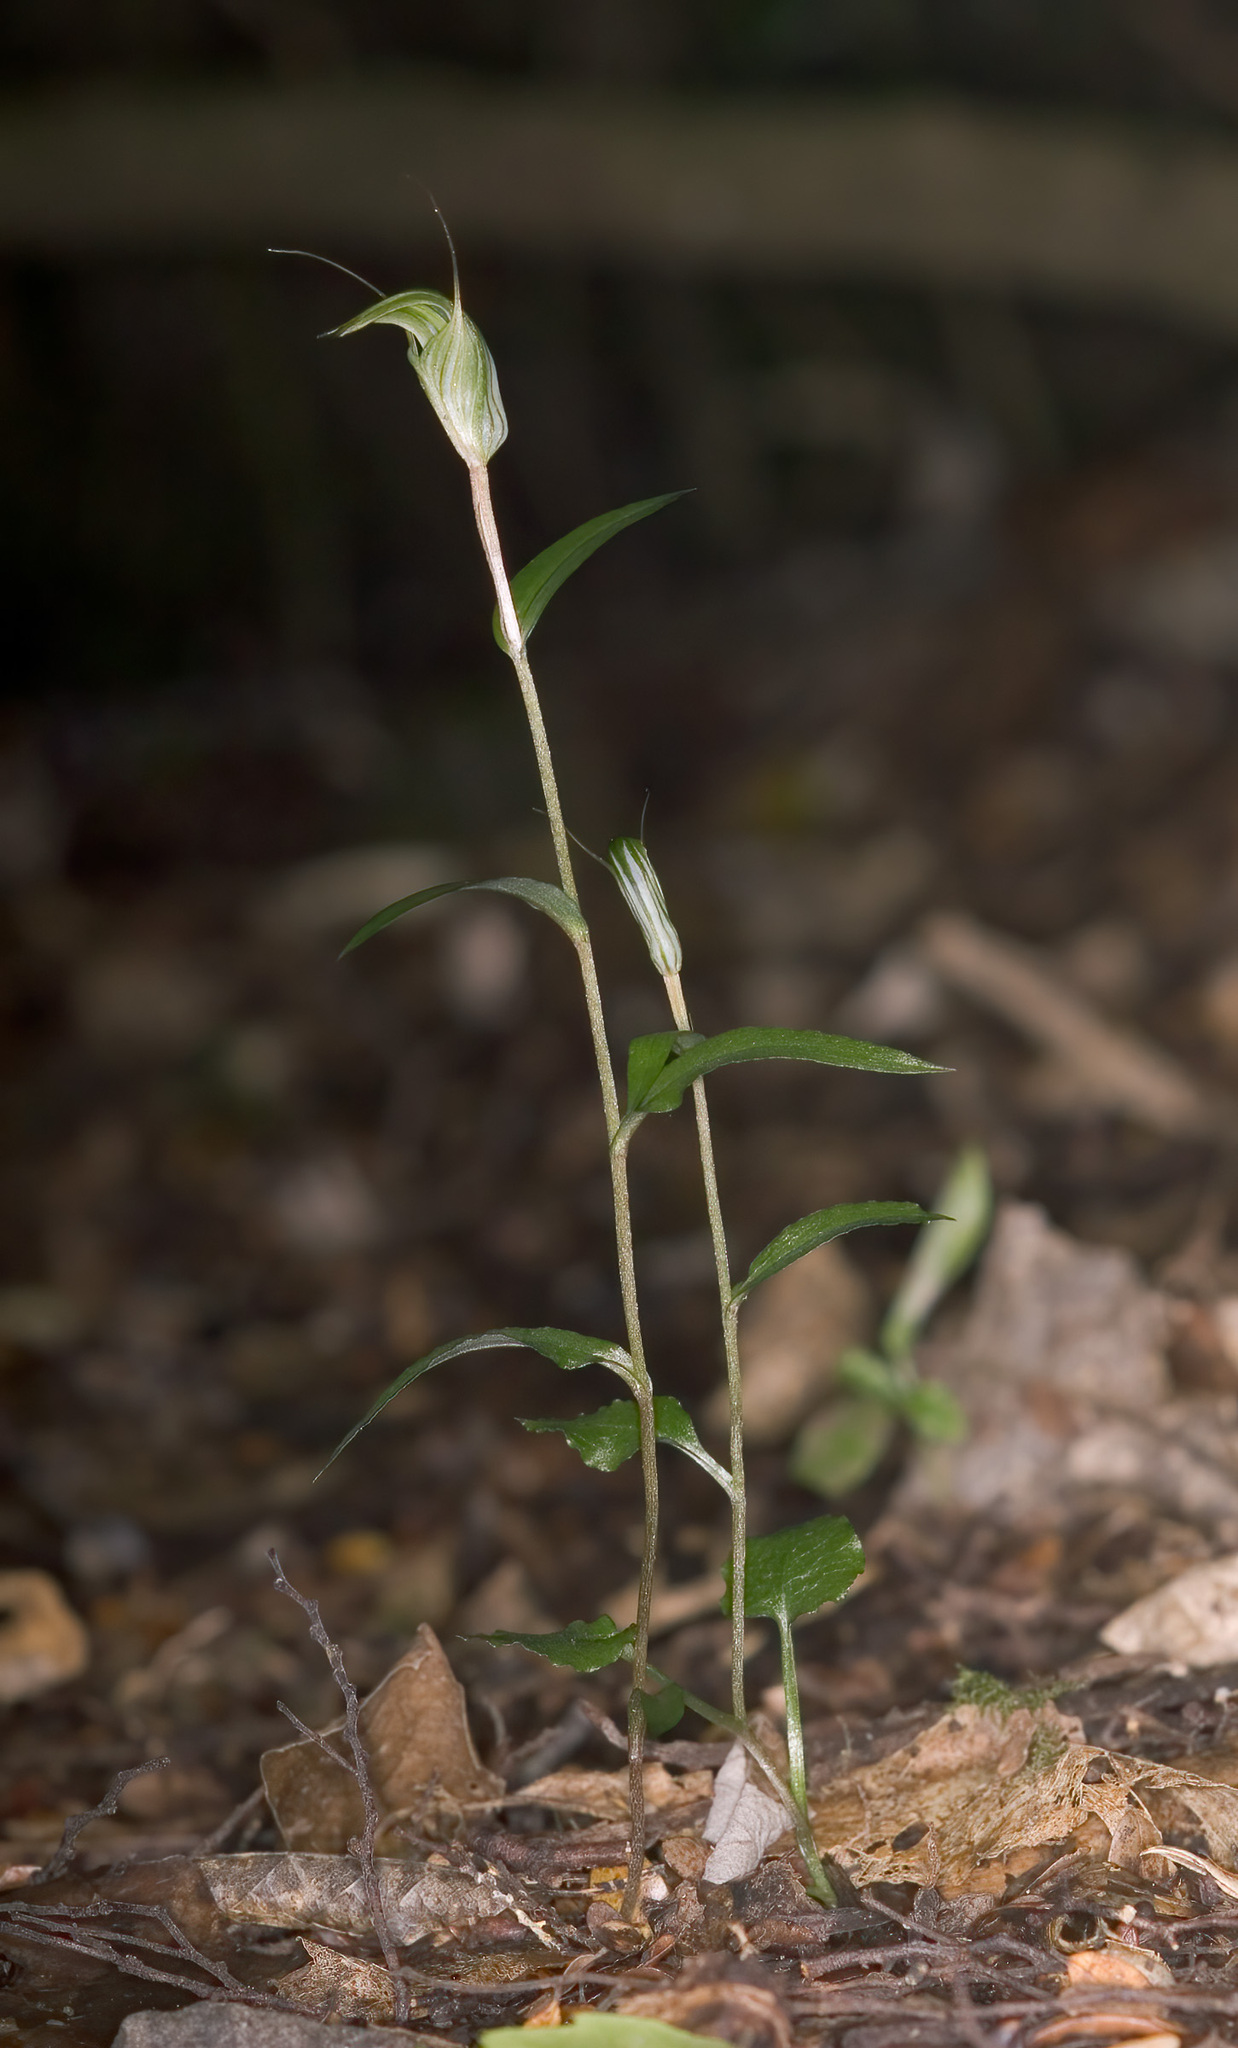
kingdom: Plantae
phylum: Tracheophyta
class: Liliopsida
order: Asparagales
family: Orchidaceae
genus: Pterostylis
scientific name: Pterostylis alobula
